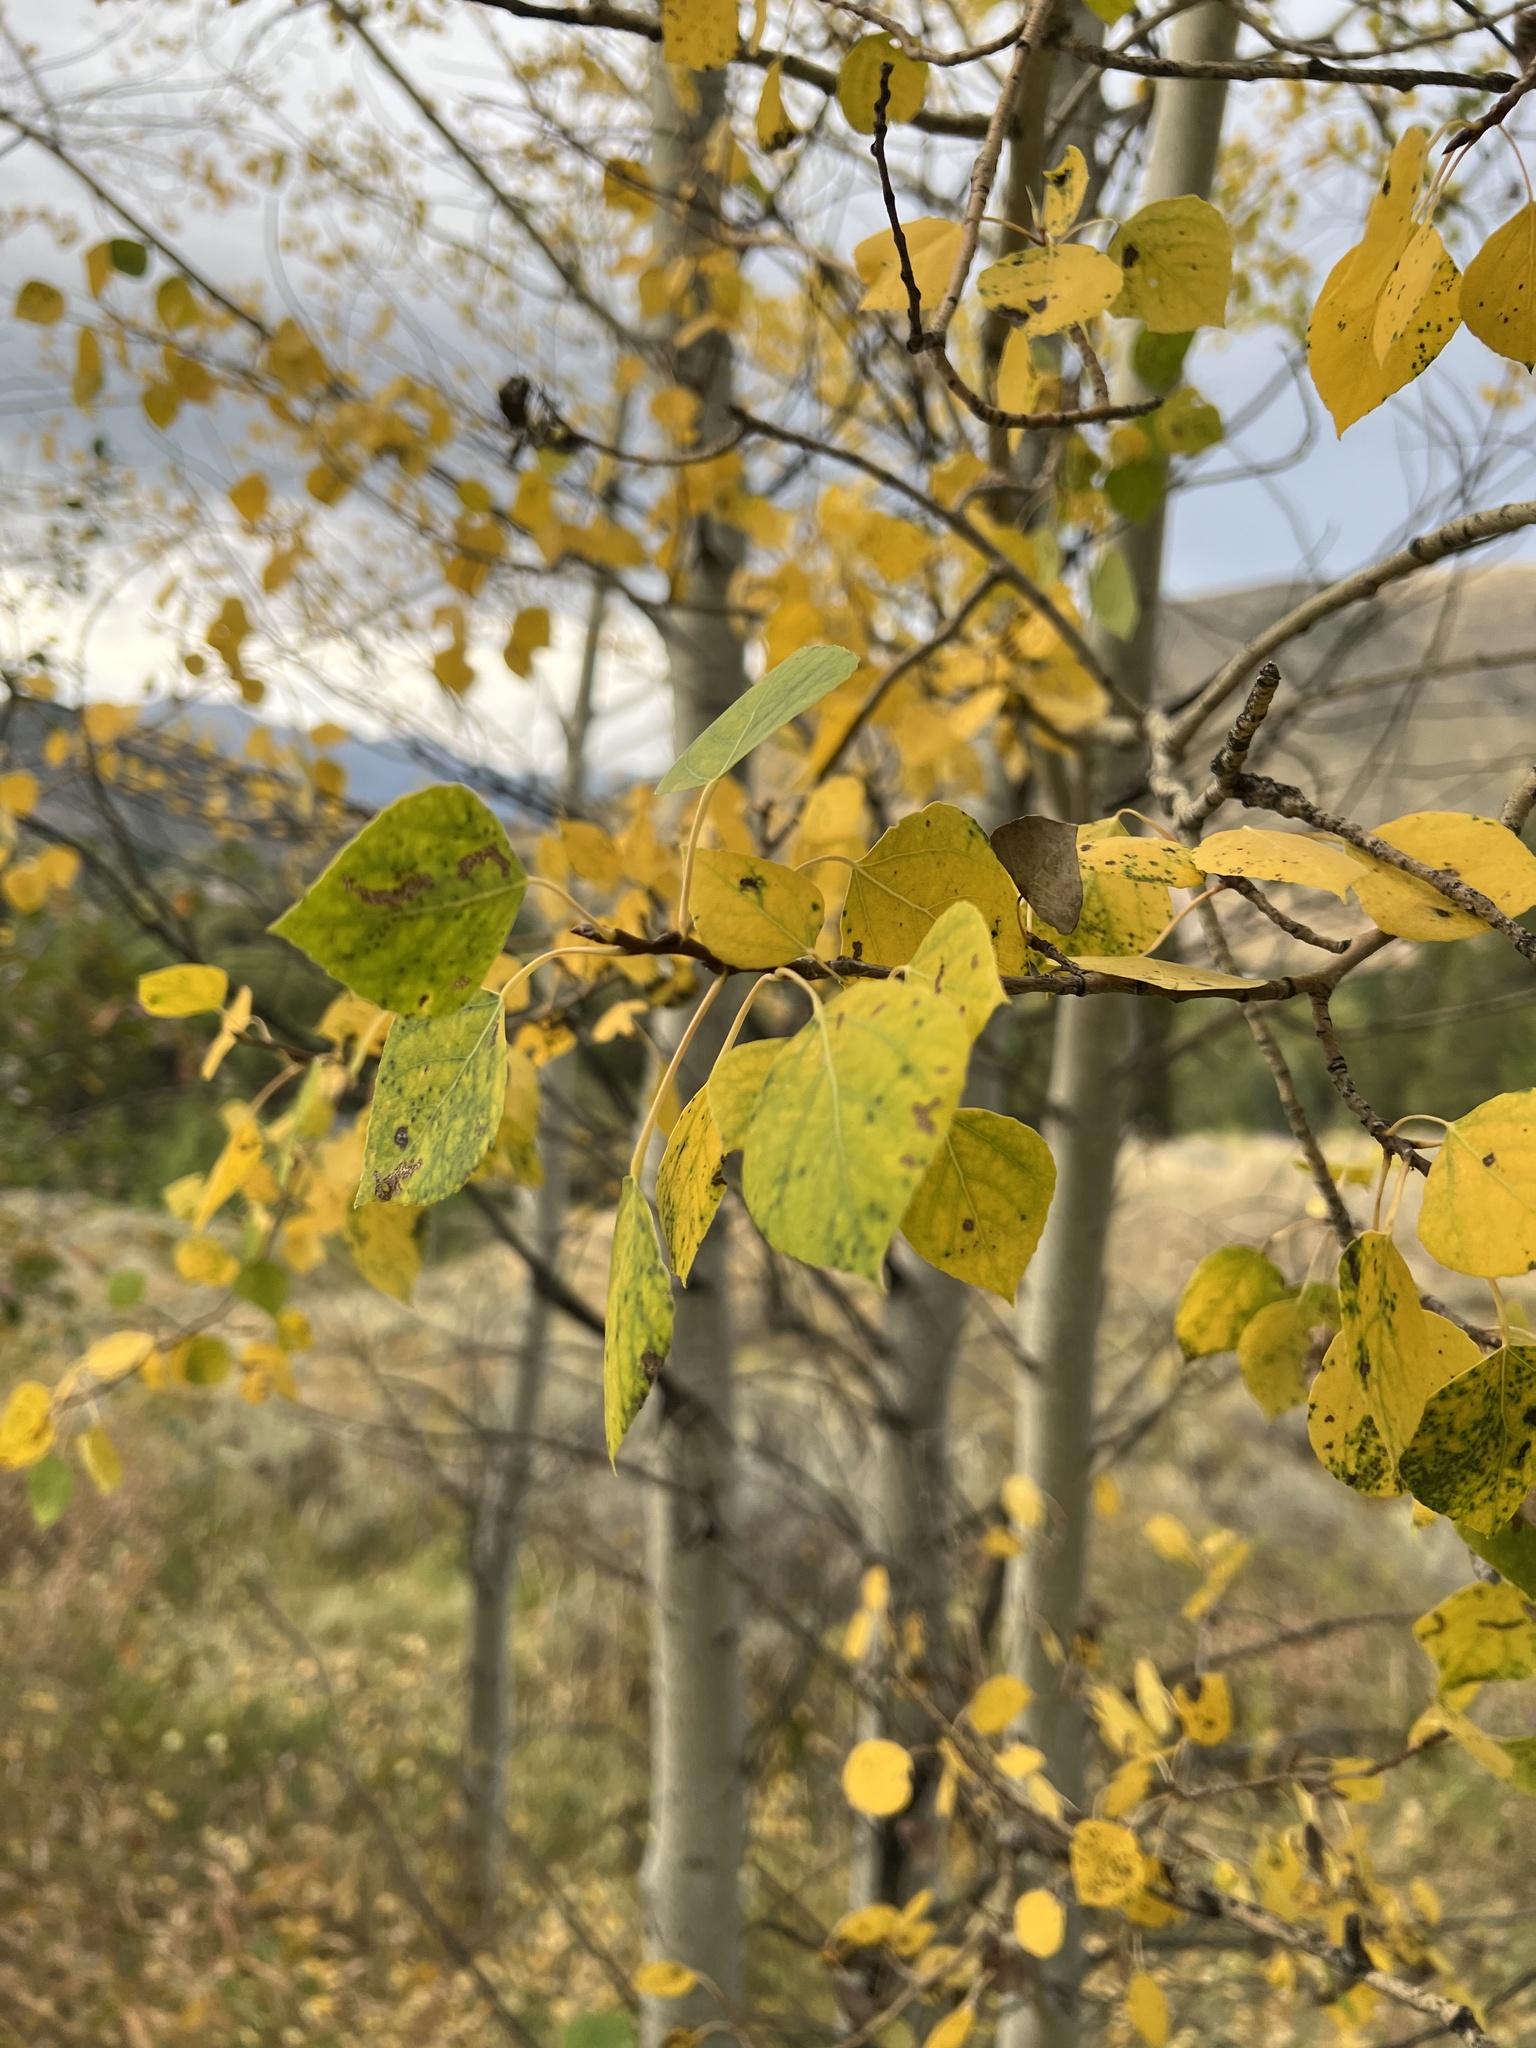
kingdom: Plantae
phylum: Tracheophyta
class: Magnoliopsida
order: Malpighiales
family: Salicaceae
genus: Populus
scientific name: Populus tremuloides
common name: Quaking aspen
